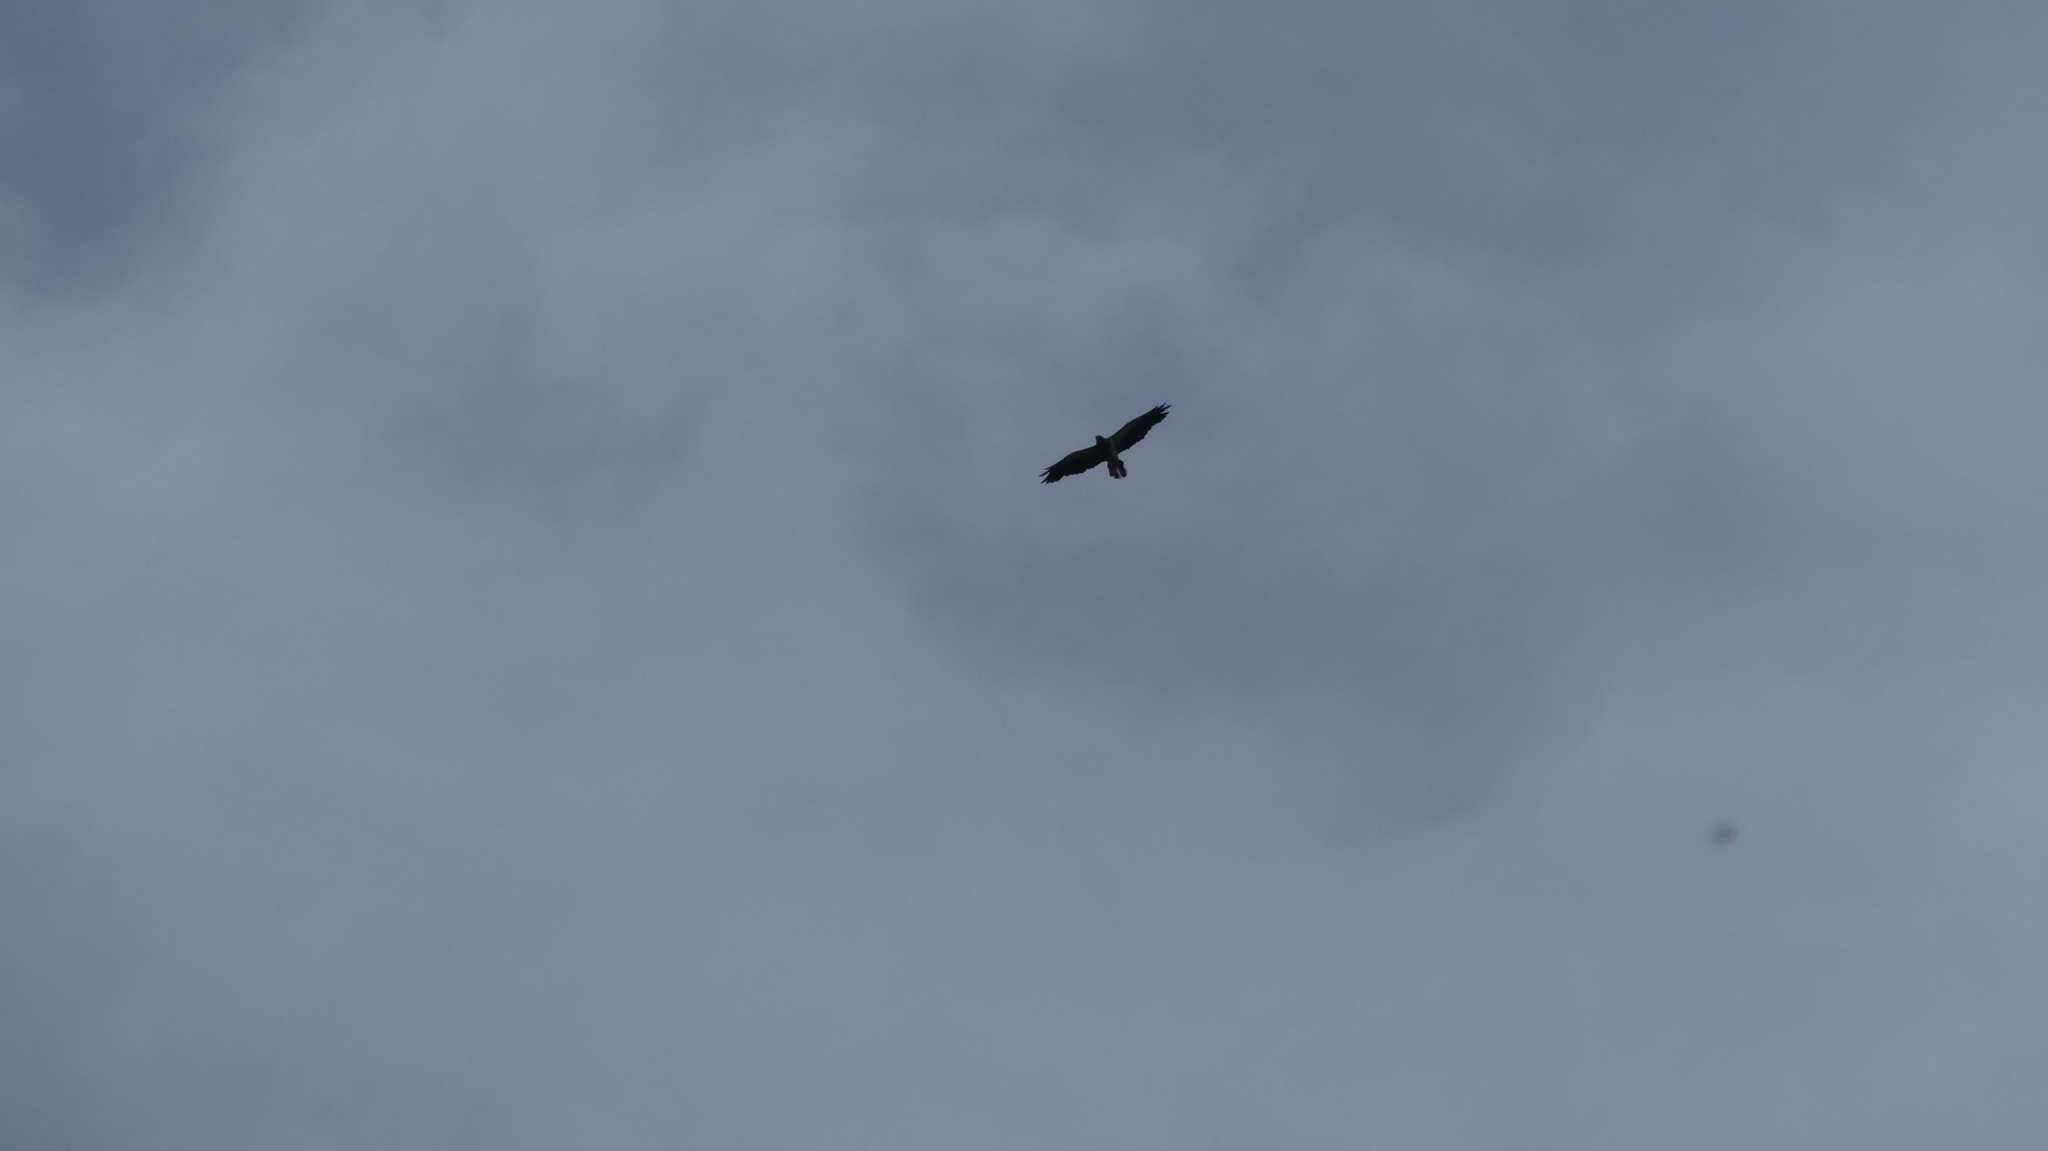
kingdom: Animalia
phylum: Chordata
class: Aves
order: Accipitriformes
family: Accipitridae
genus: Buteo
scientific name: Buteo swainsoni
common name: Swainson's hawk
